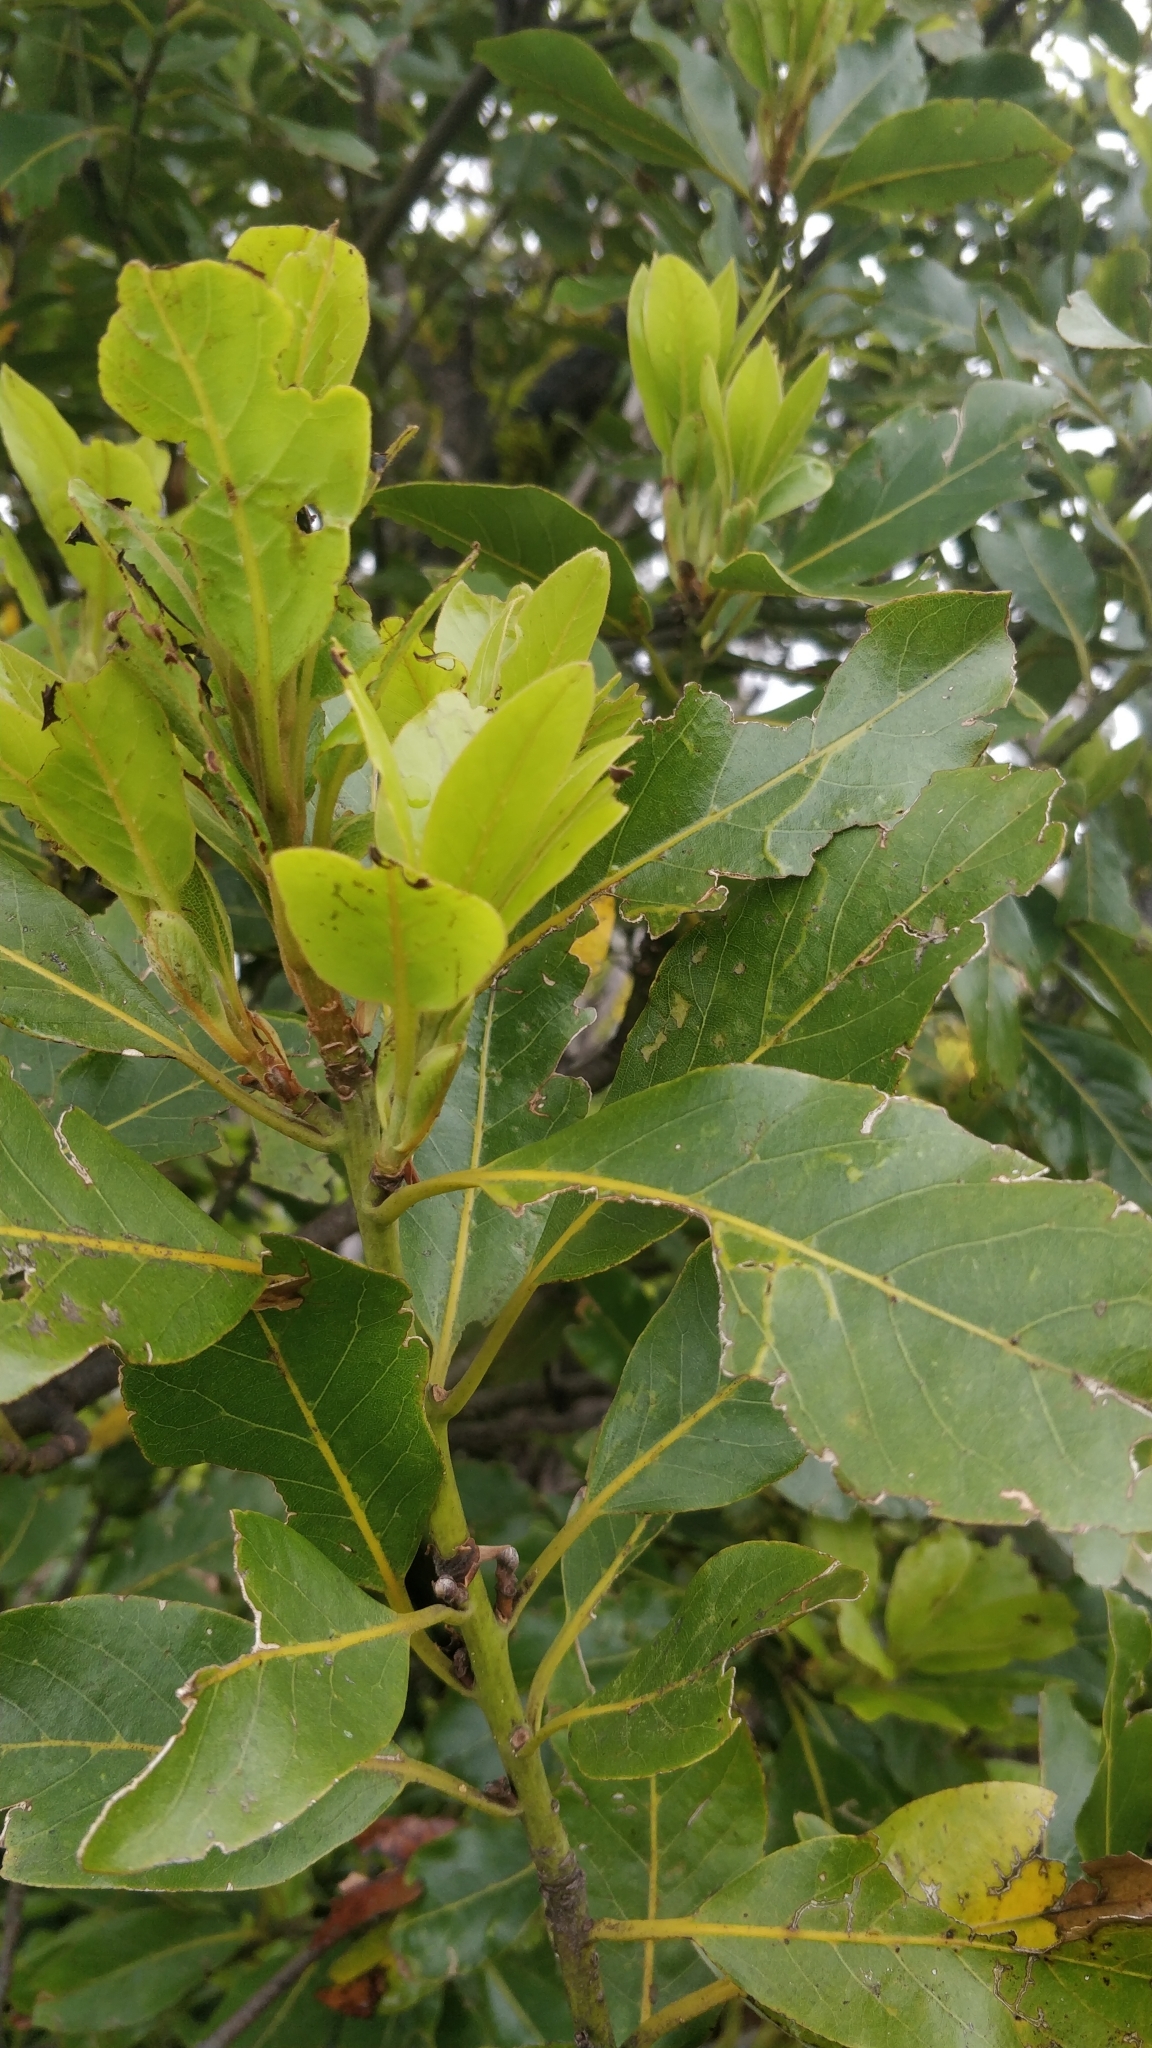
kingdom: Plantae
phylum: Tracheophyta
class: Magnoliopsida
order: Laurales
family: Lauraceae
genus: Laurus
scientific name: Laurus novocanariensis
